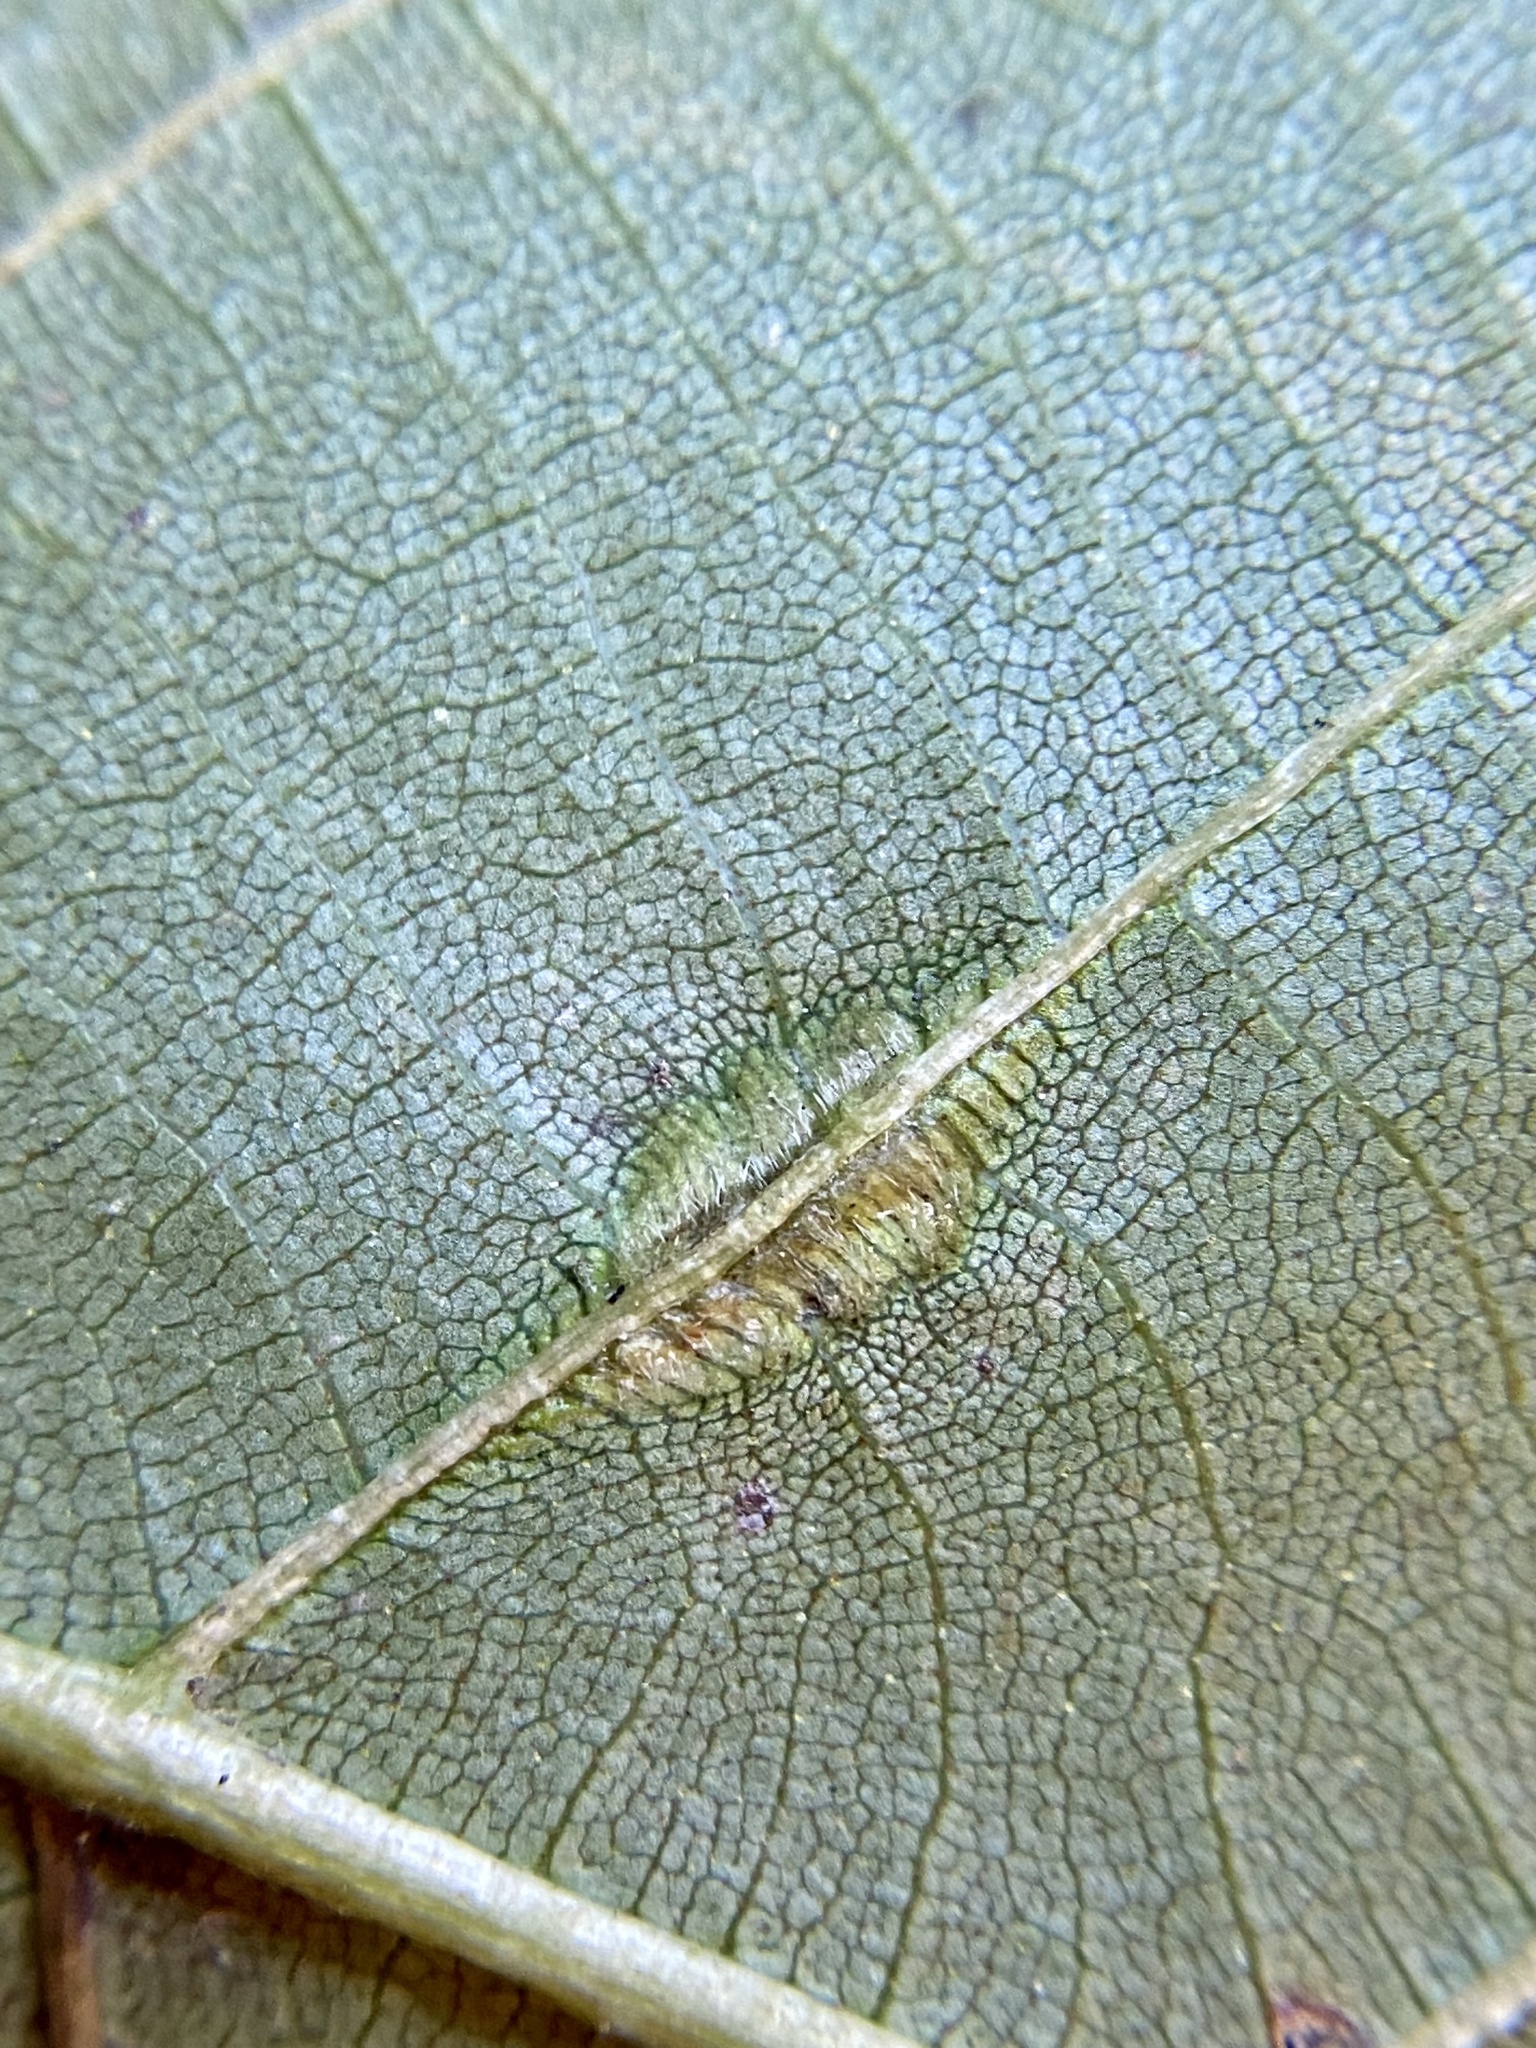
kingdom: Animalia
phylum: Arthropoda
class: Insecta
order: Hemiptera
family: Phylloxeridae
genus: Phylloxera
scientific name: Phylloxera caryaevenae
